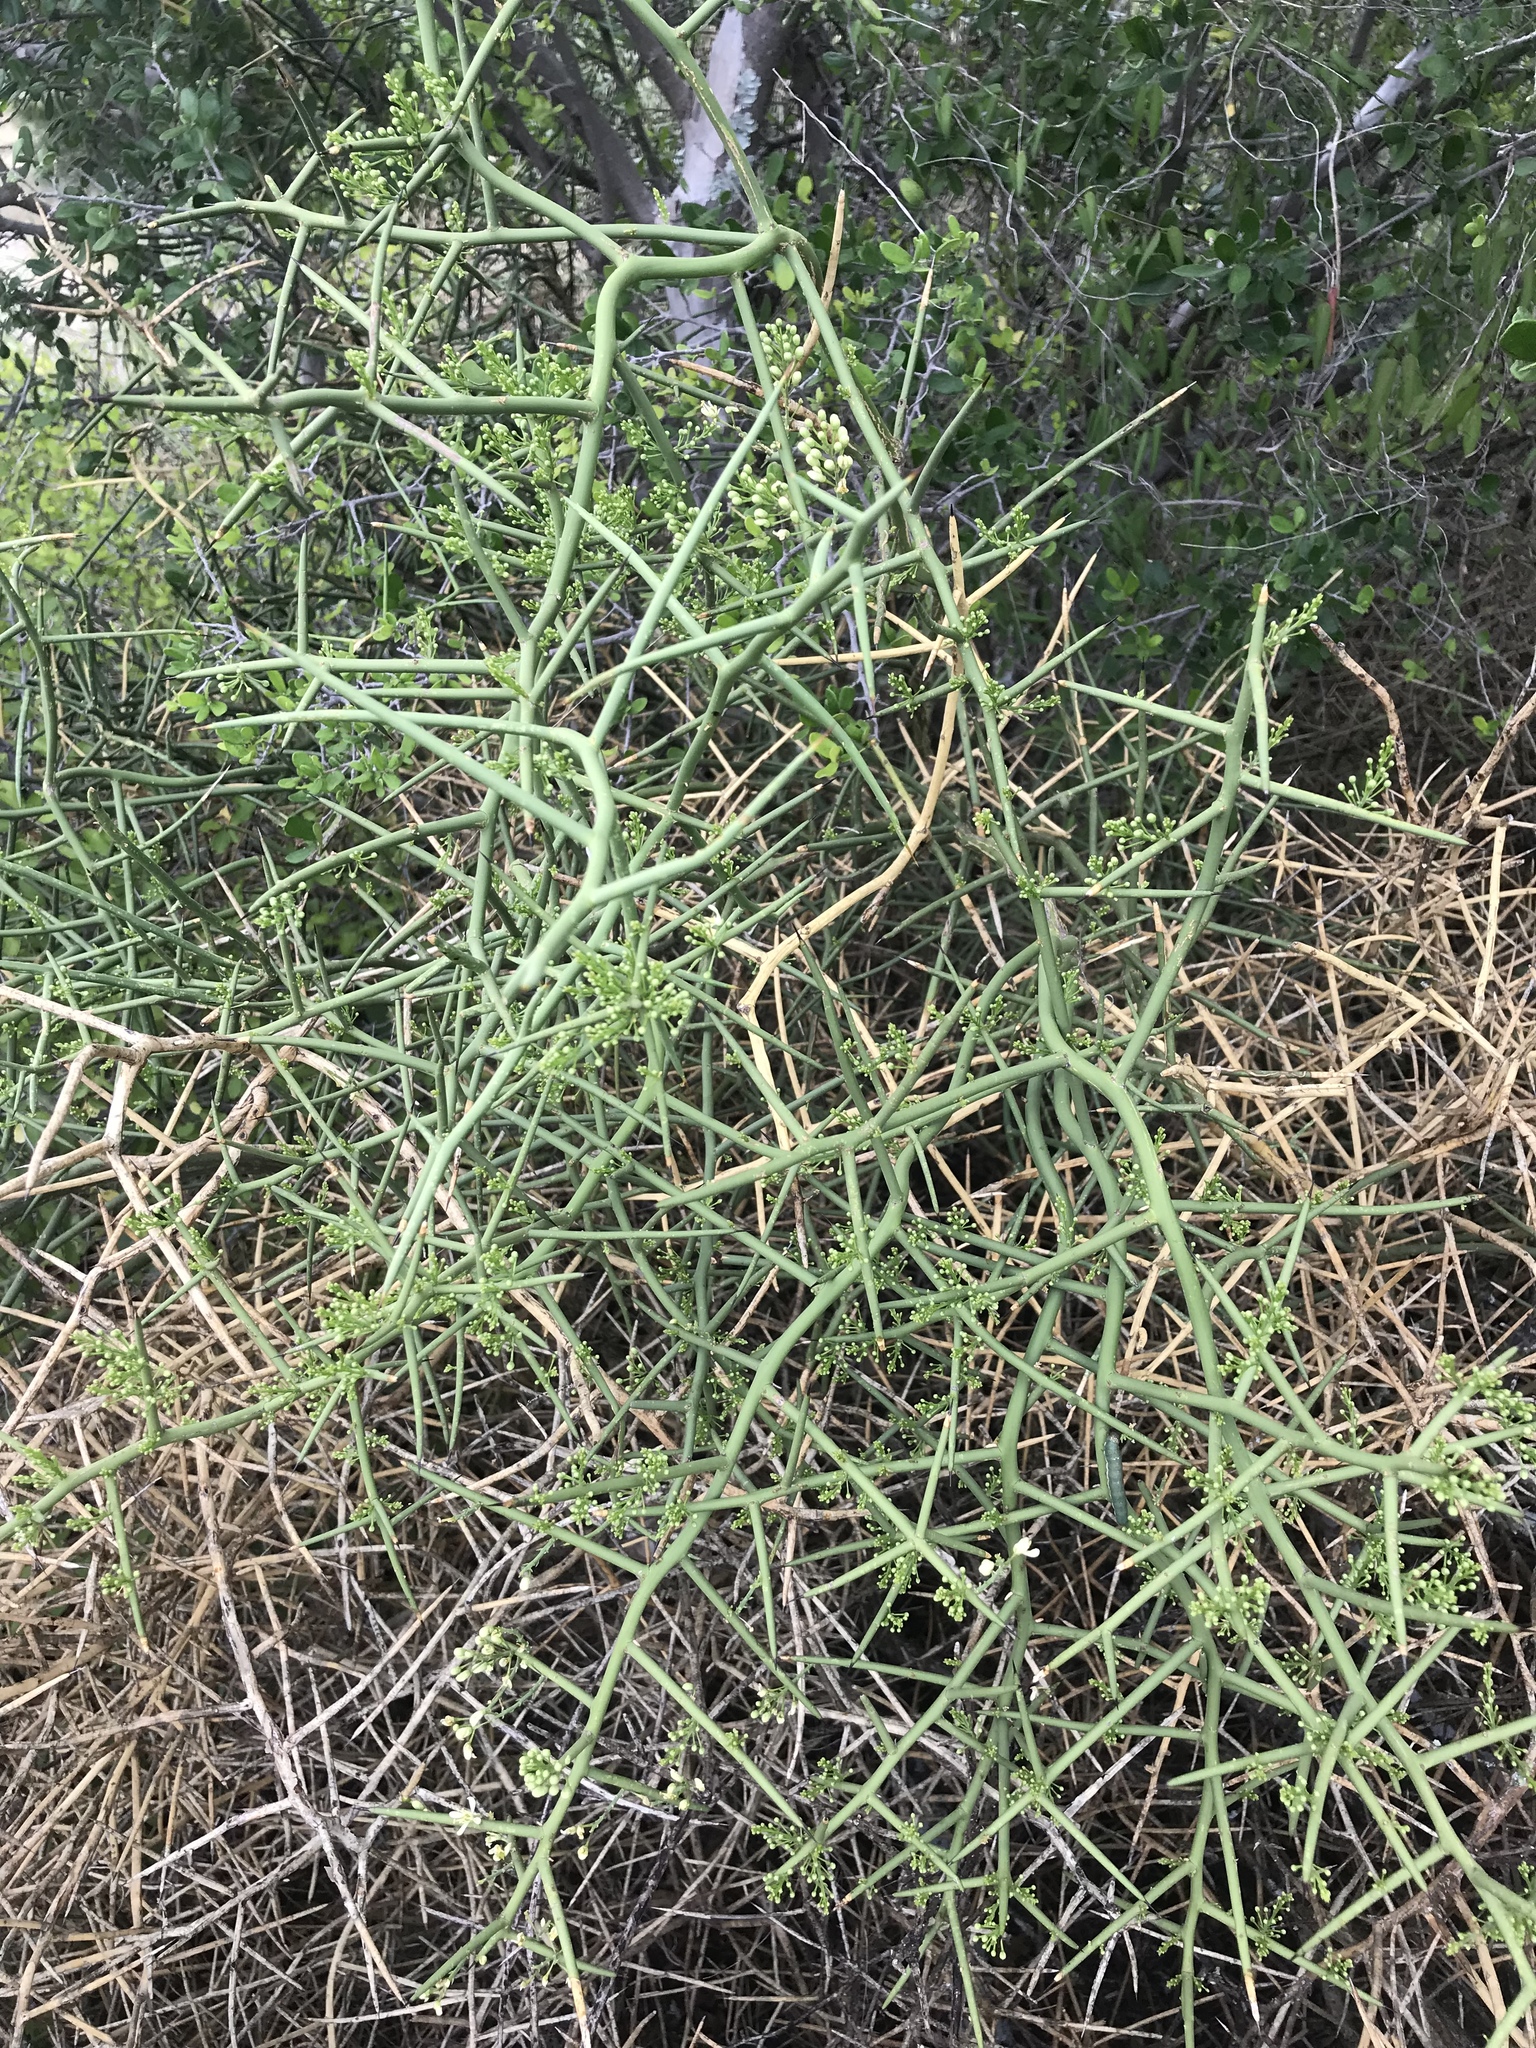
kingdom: Plantae
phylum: Tracheophyta
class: Magnoliopsida
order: Brassicales
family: Koeberliniaceae
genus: Koeberlinia
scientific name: Koeberlinia spinosa
